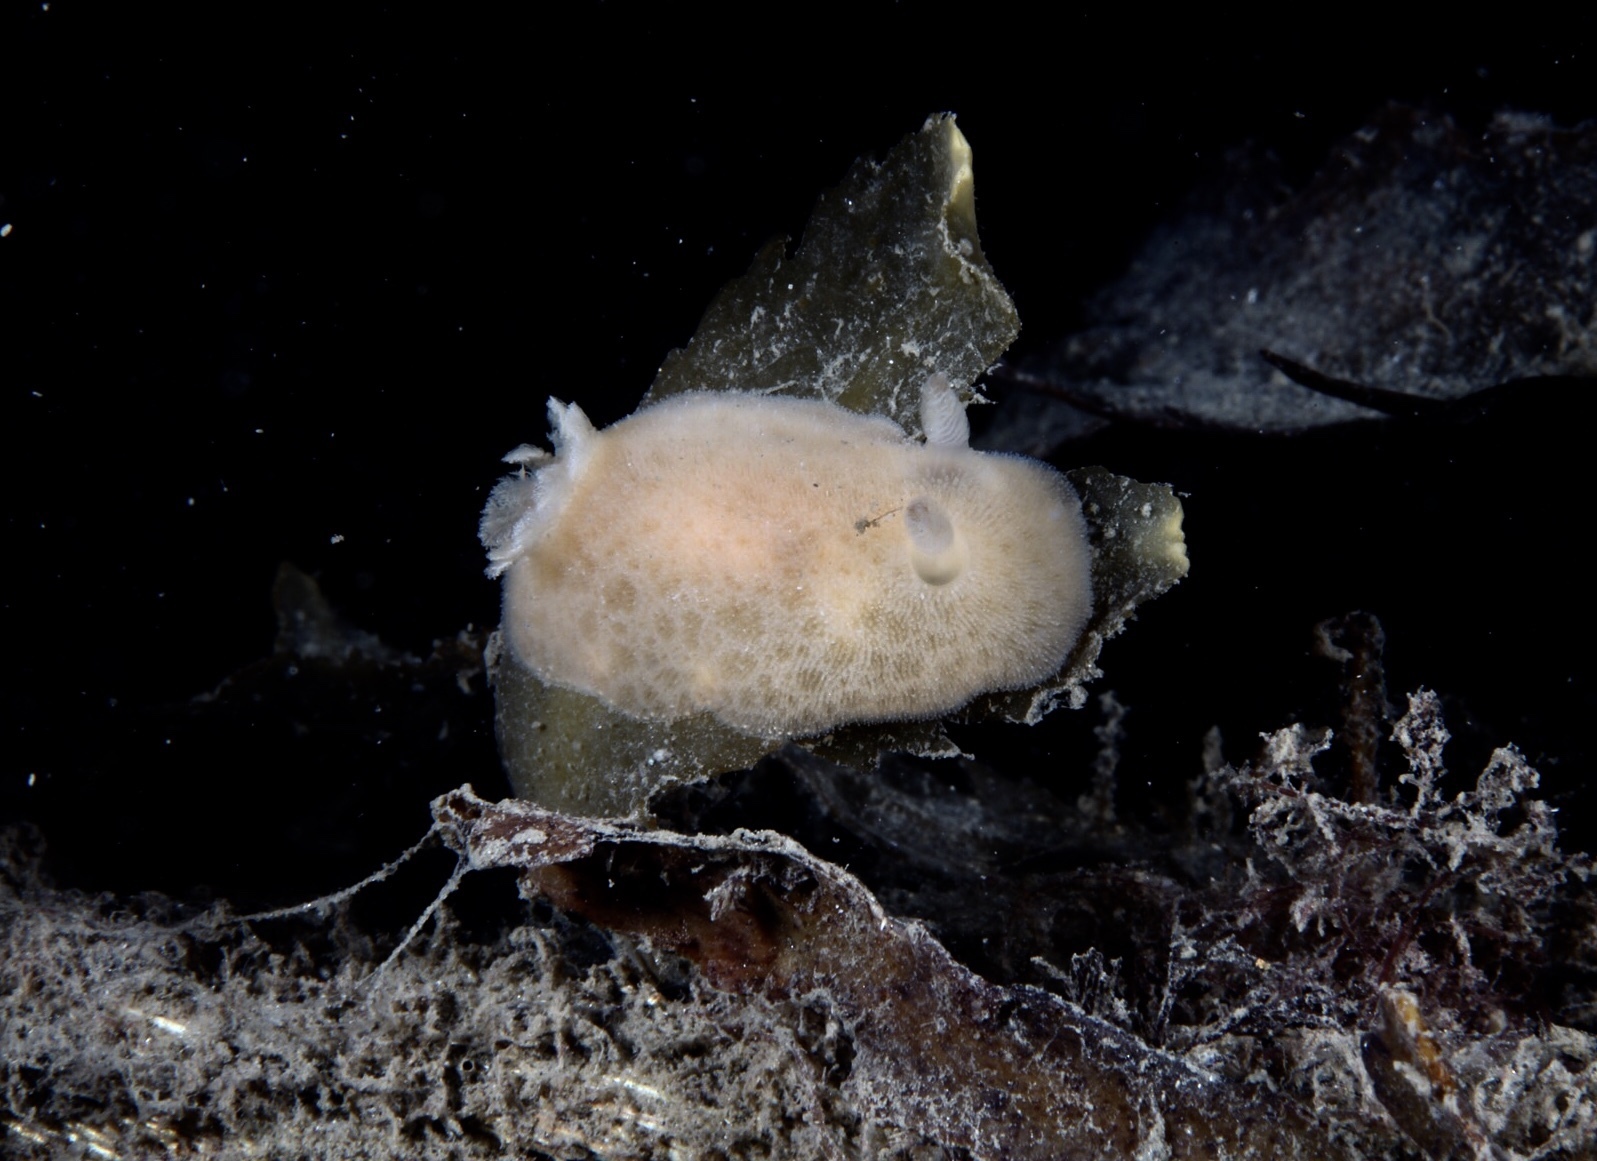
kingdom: Animalia
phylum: Mollusca
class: Gastropoda
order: Nudibranchia
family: Discodorididae
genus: Jorunna
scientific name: Jorunna tomentosa
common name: Grey sea slug
